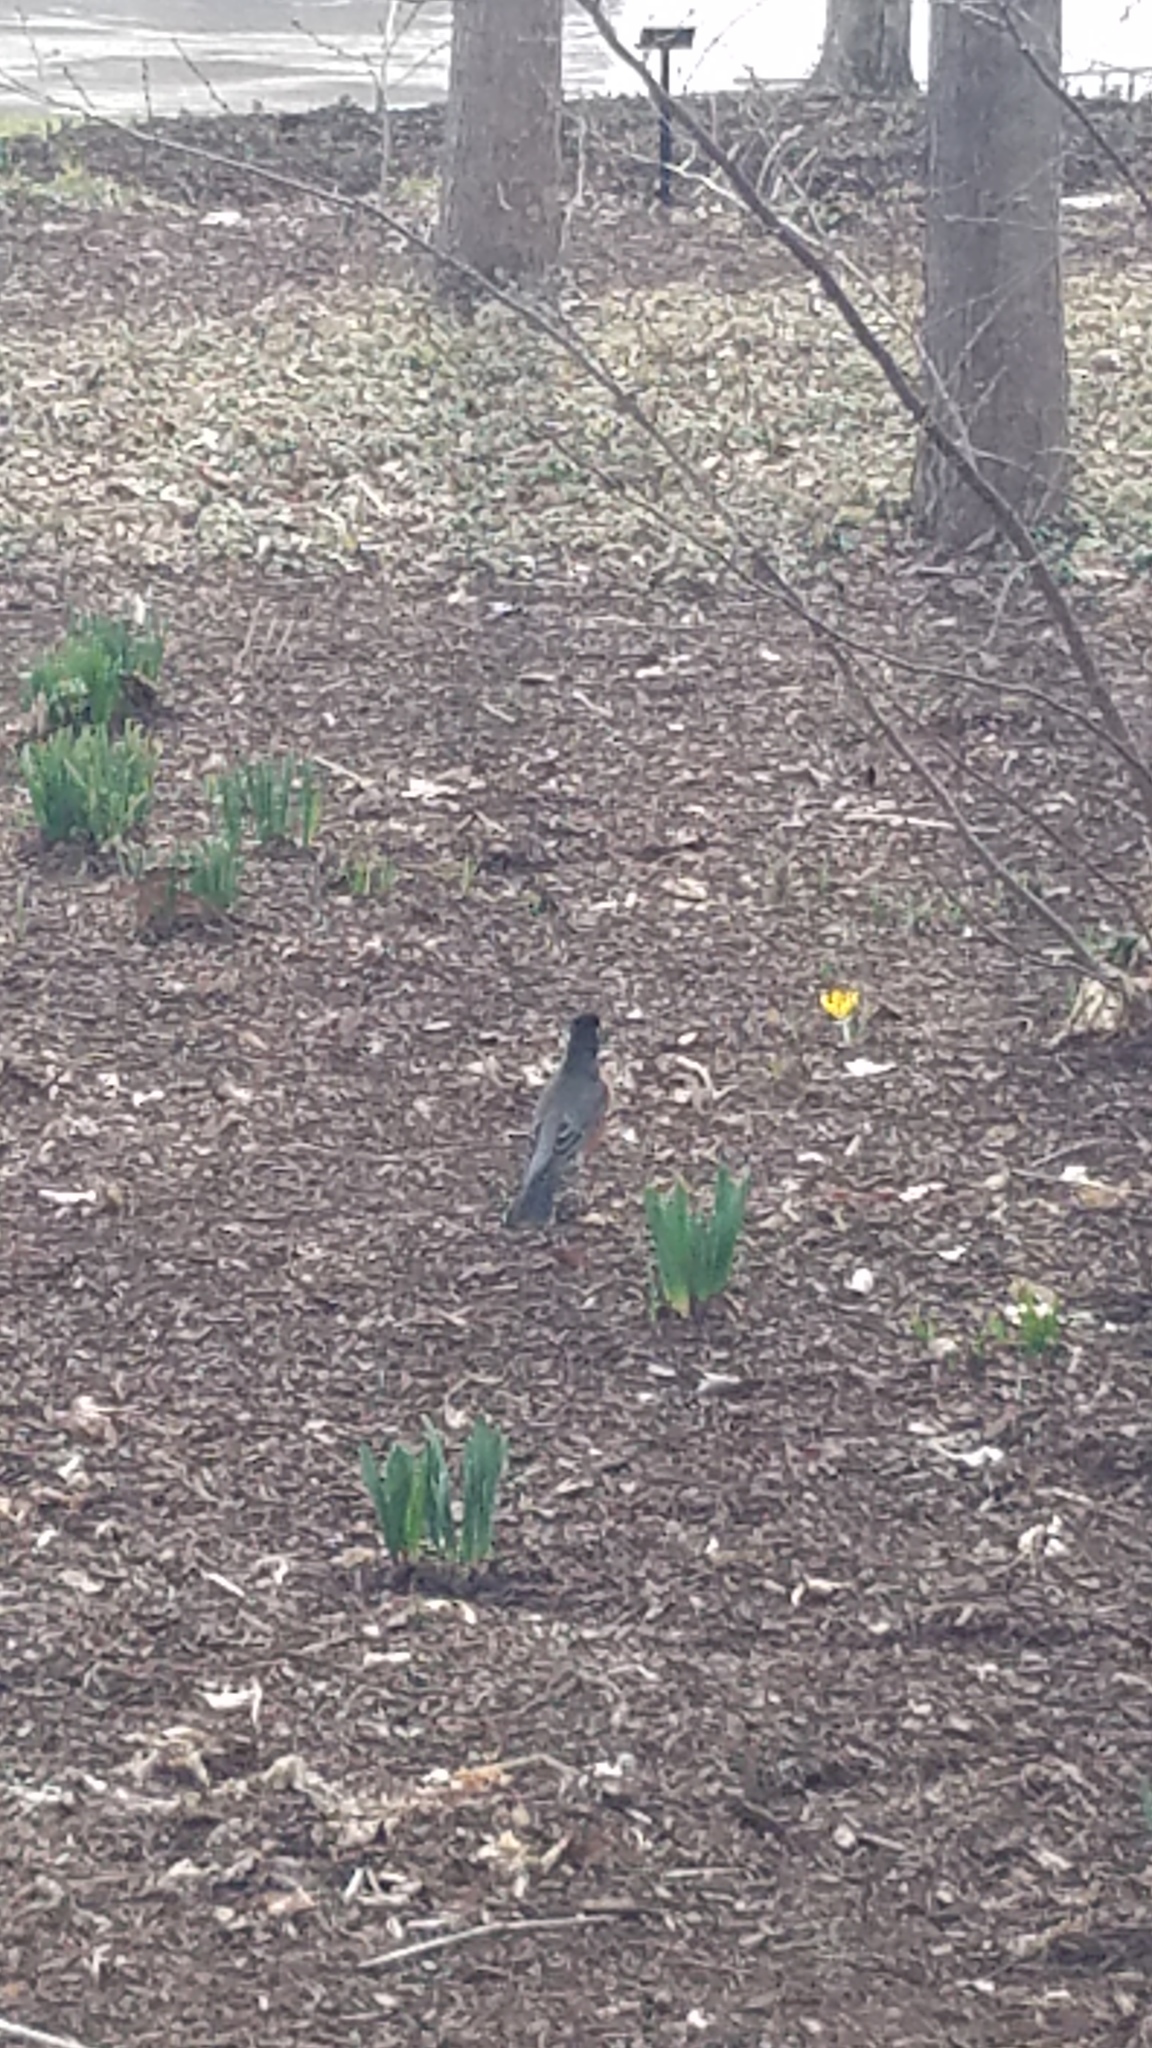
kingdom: Animalia
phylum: Chordata
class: Aves
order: Passeriformes
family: Turdidae
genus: Turdus
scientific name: Turdus migratorius
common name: American robin
